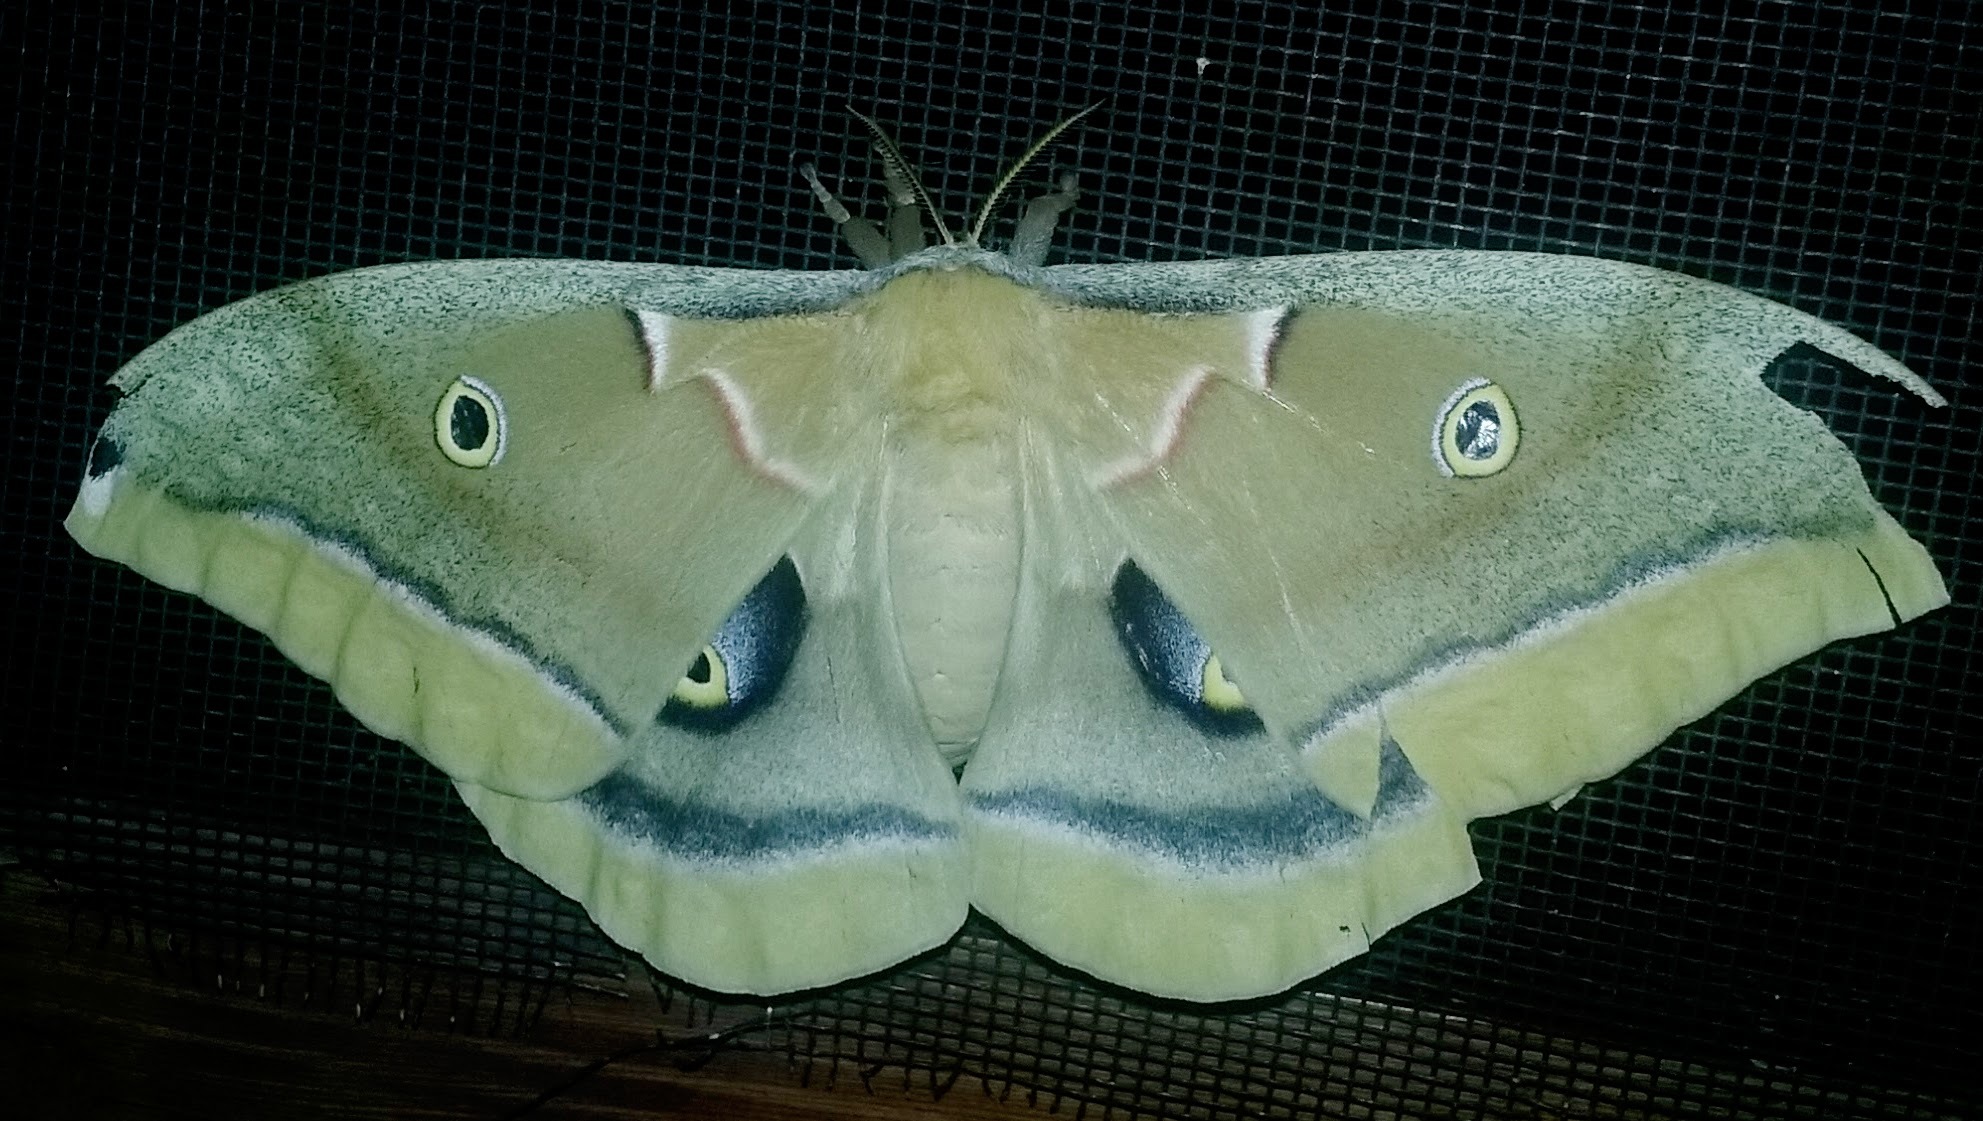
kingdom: Animalia
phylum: Arthropoda
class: Insecta
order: Lepidoptera
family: Saturniidae
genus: Antheraea
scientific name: Antheraea polyphemus
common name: Polyphemus moth
